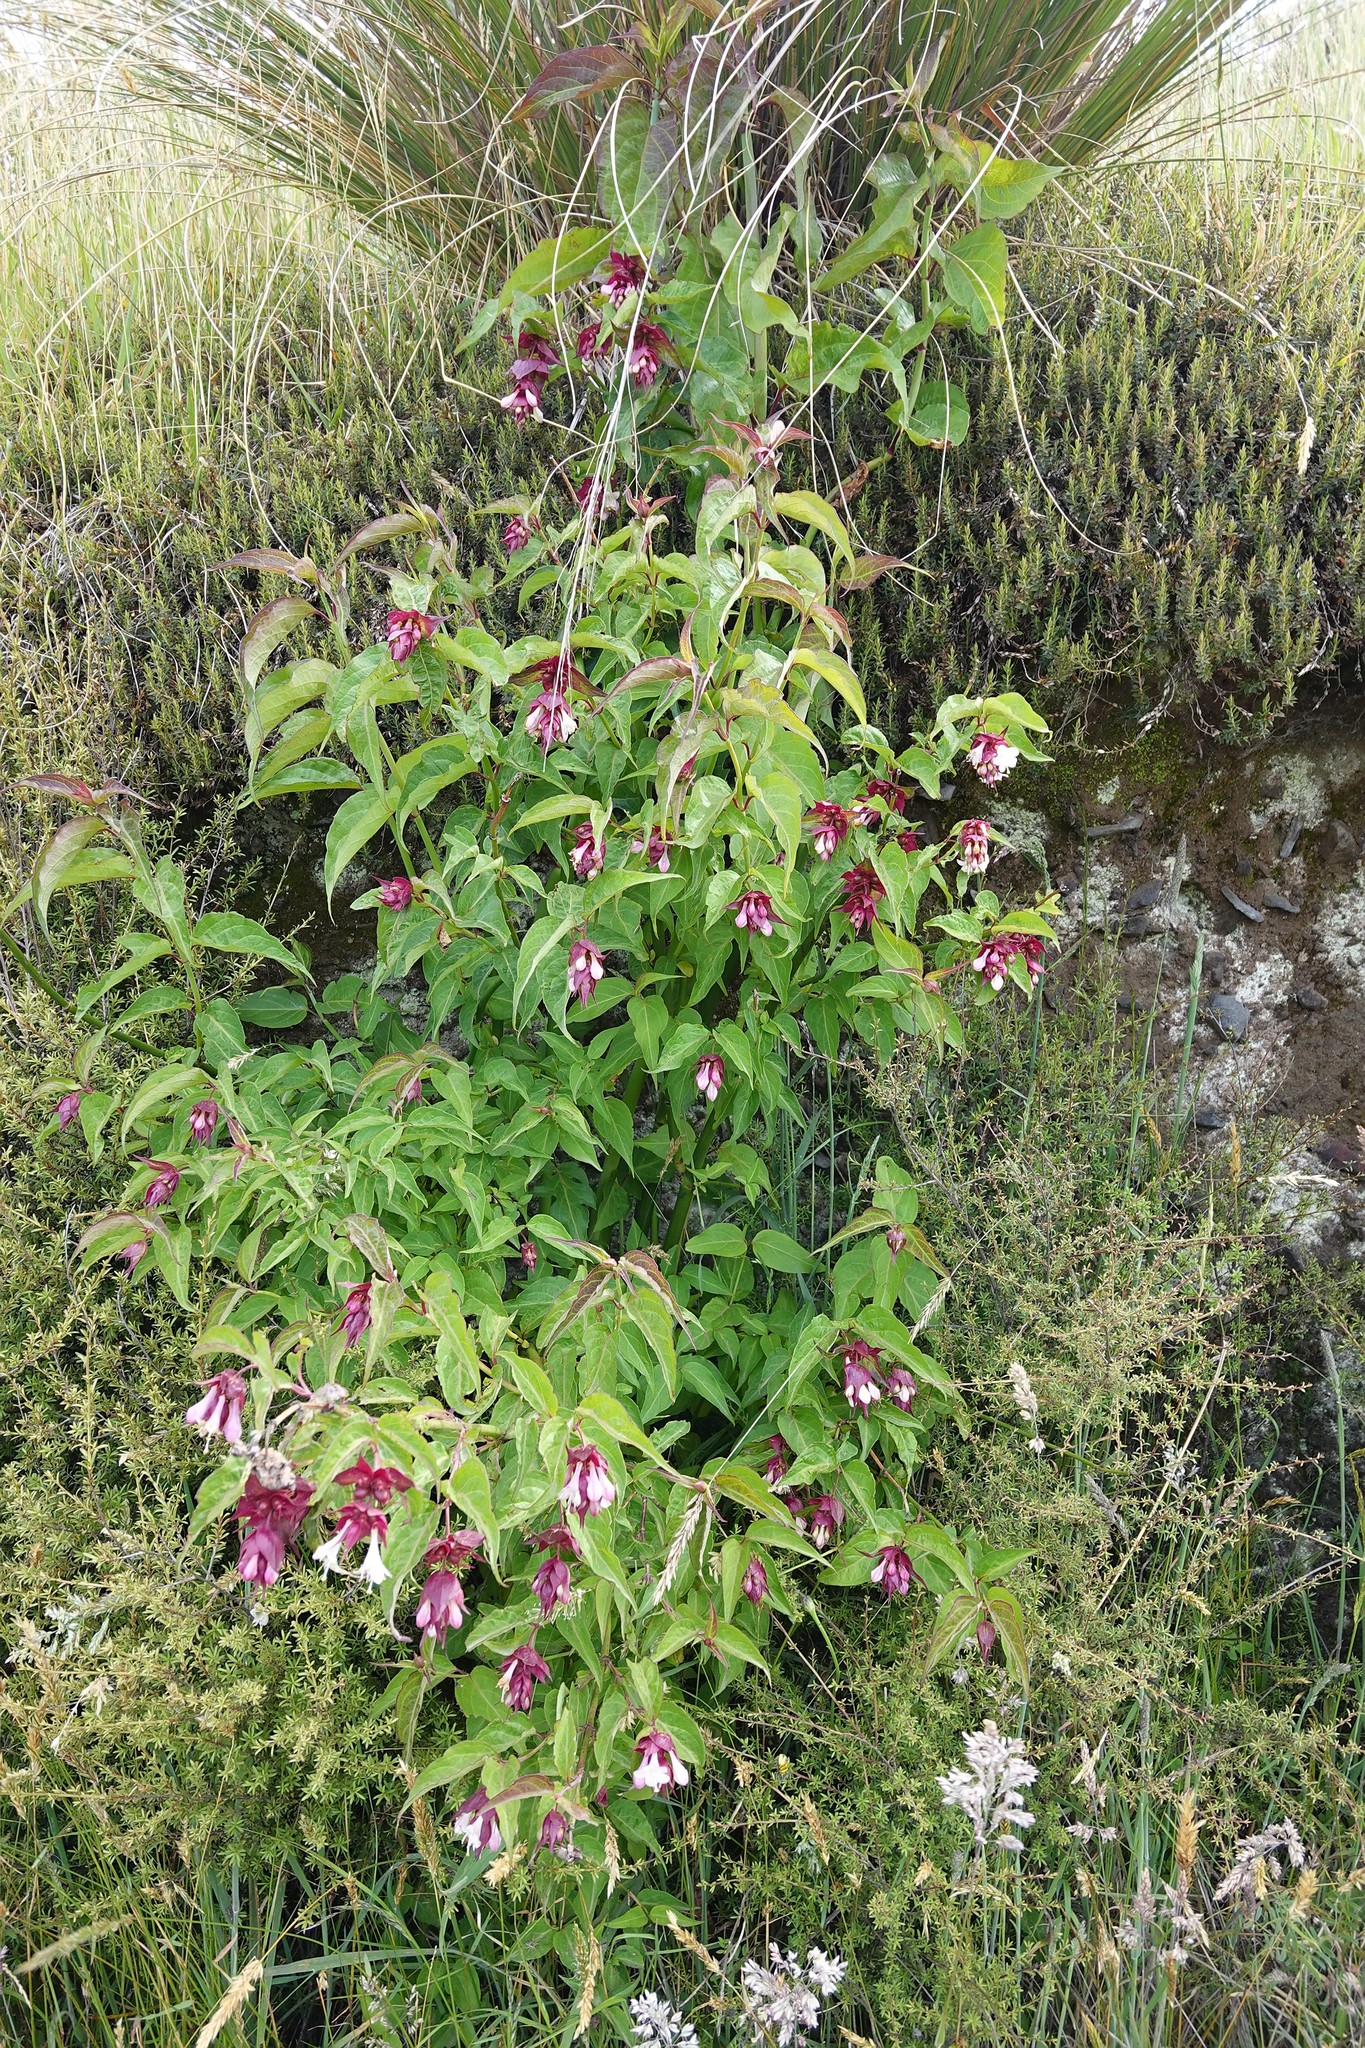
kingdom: Plantae
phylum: Tracheophyta
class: Magnoliopsida
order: Dipsacales
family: Caprifoliaceae
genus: Leycesteria
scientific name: Leycesteria formosa
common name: Himalayan honeysuckle
